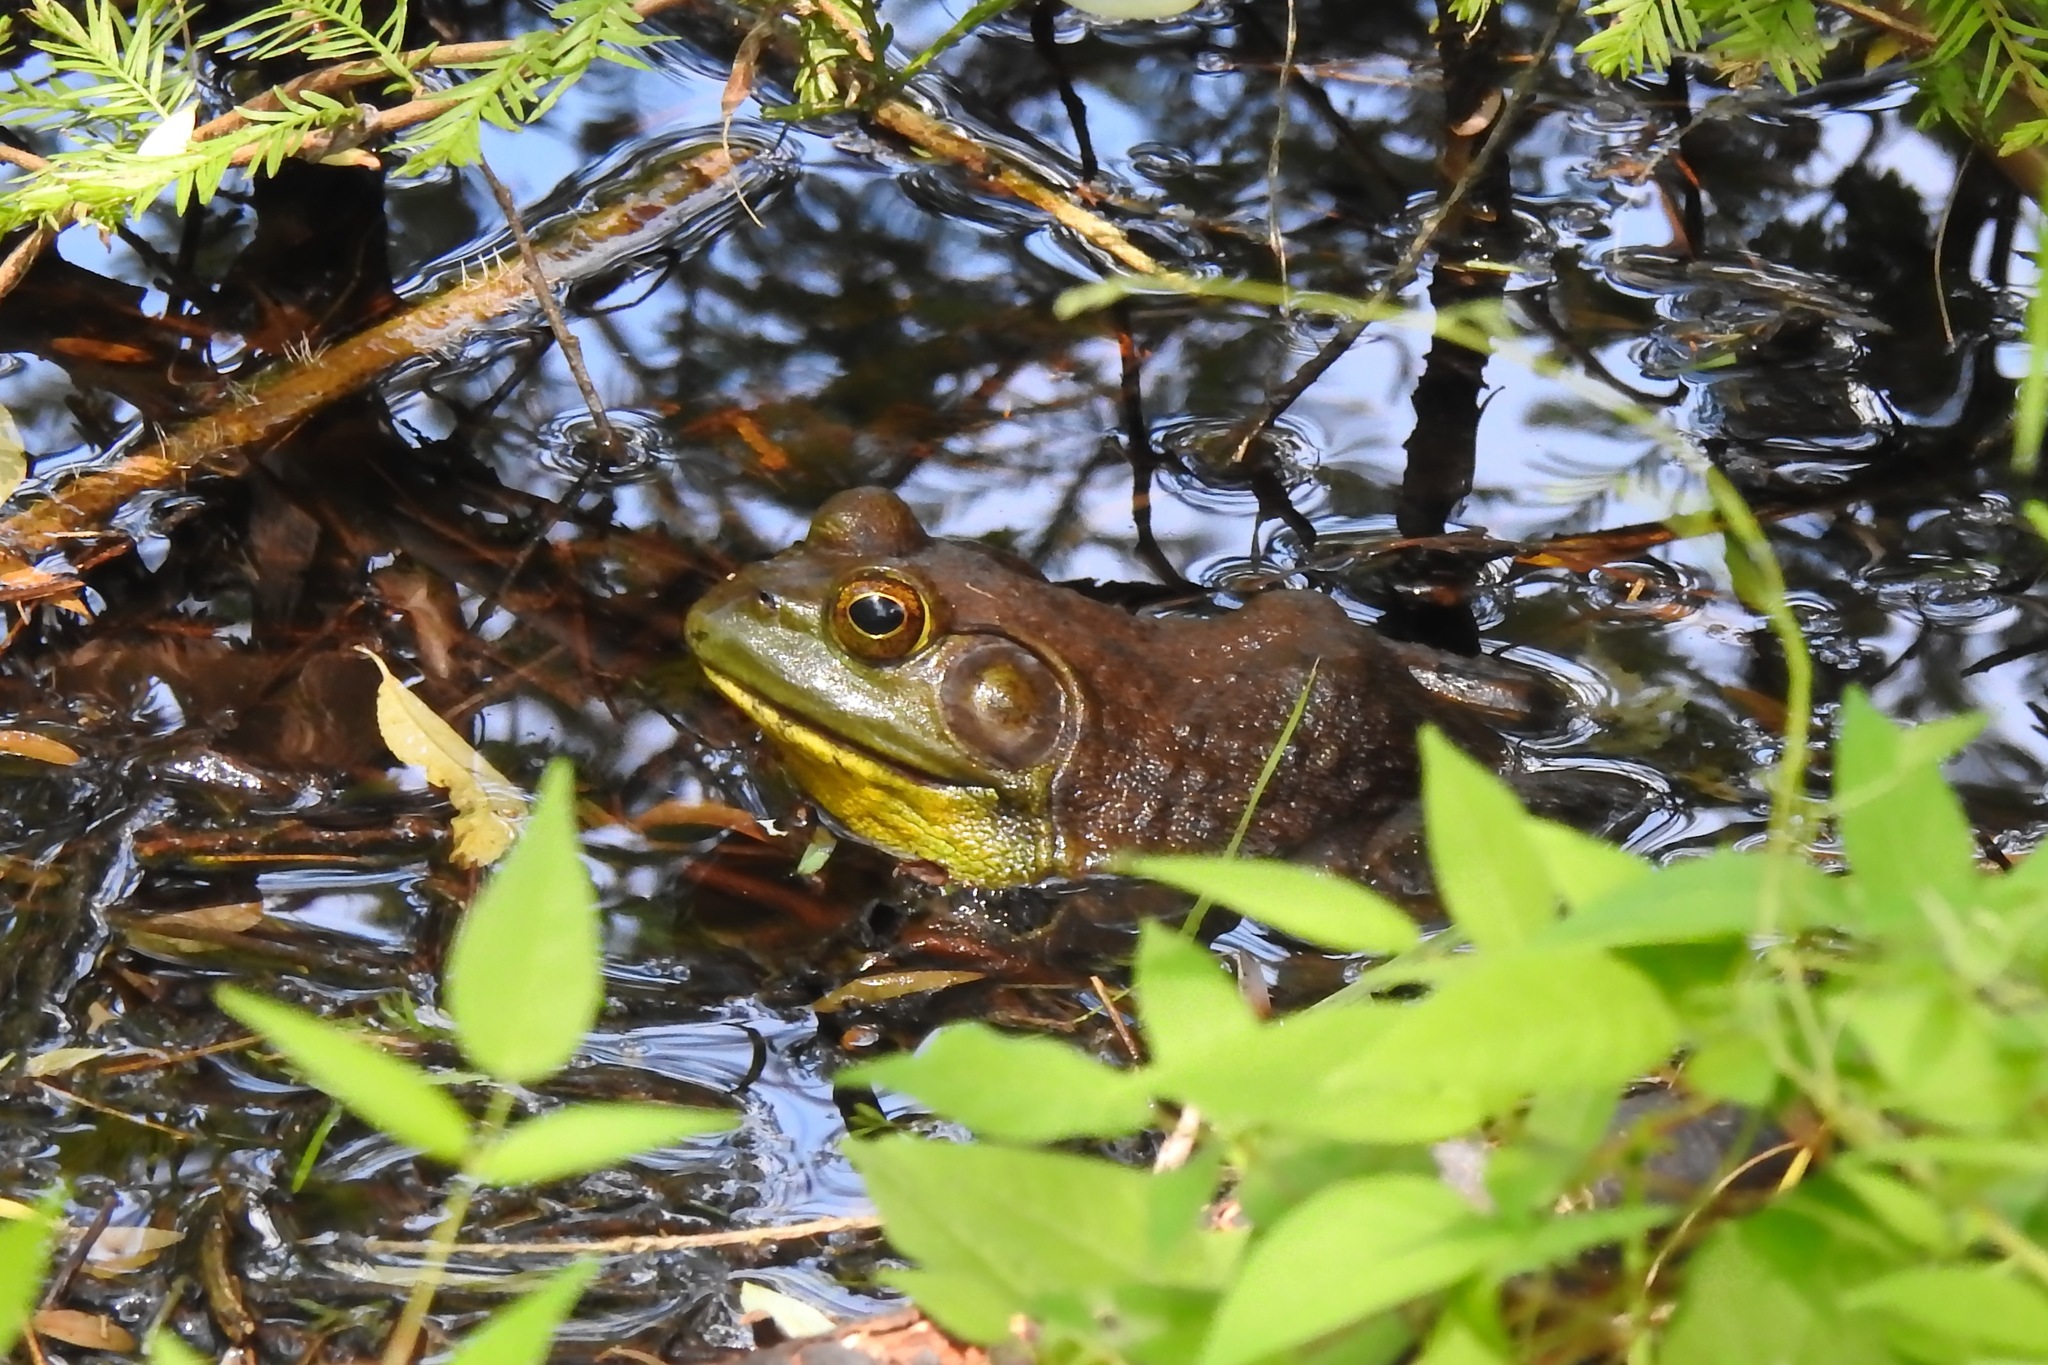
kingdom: Animalia
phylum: Chordata
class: Amphibia
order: Anura
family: Ranidae
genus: Lithobates
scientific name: Lithobates catesbeianus
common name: American bullfrog
